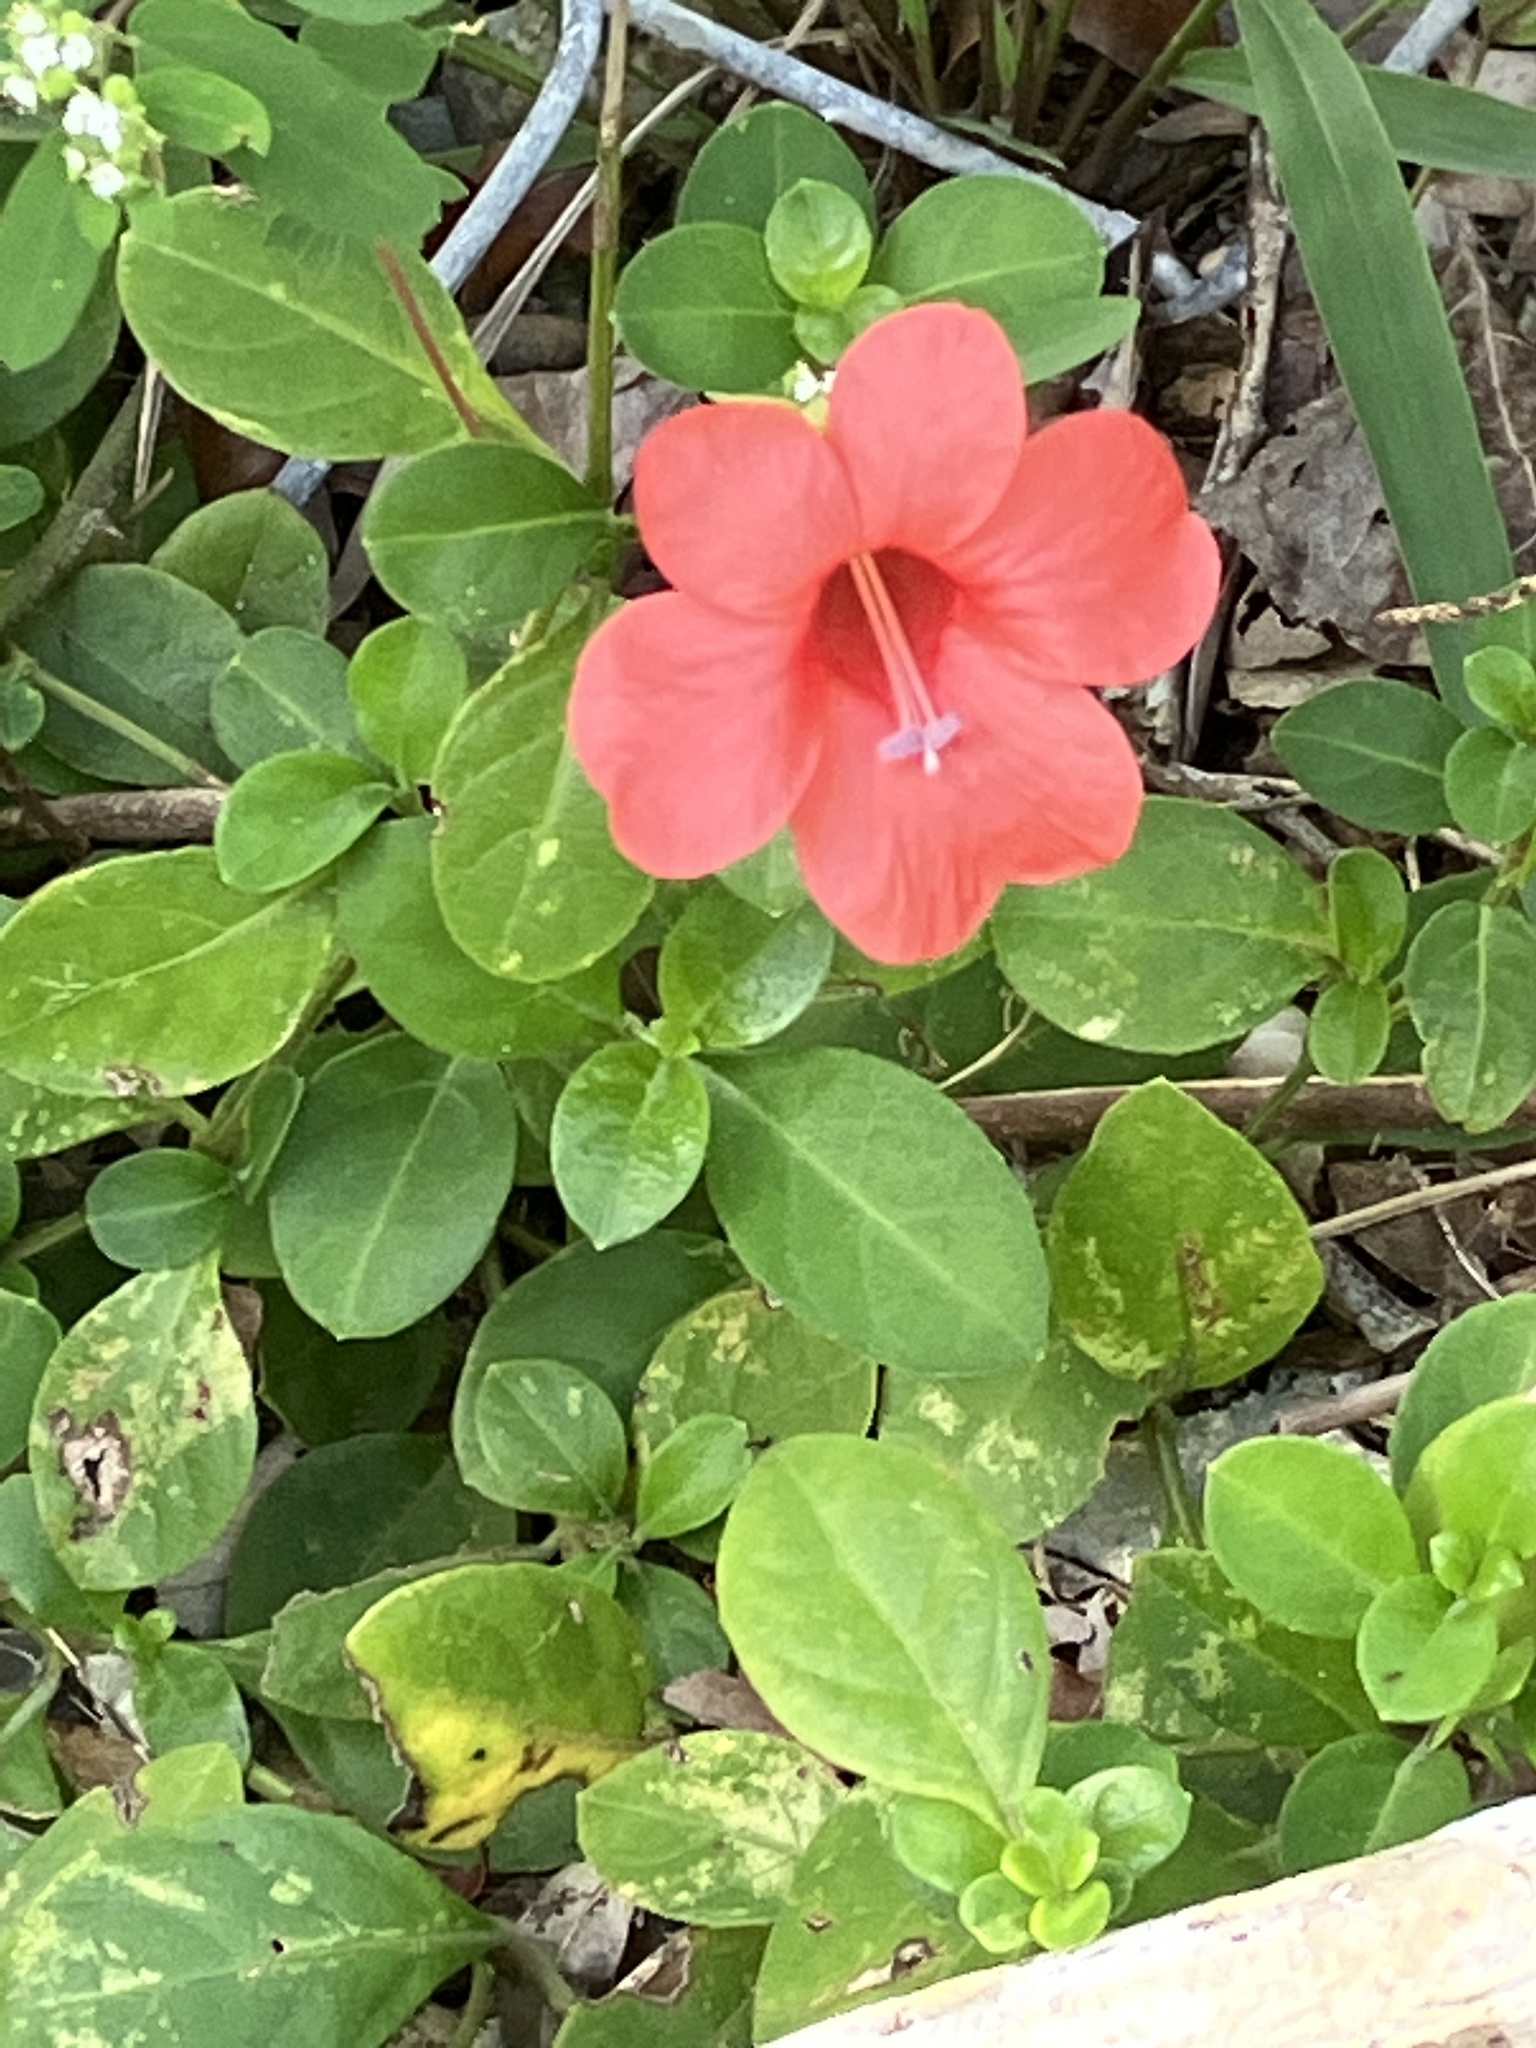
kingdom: Plantae
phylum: Tracheophyta
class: Magnoliopsida
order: Lamiales
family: Acanthaceae
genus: Barleria
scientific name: Barleria repens
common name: Pink-ruellia
